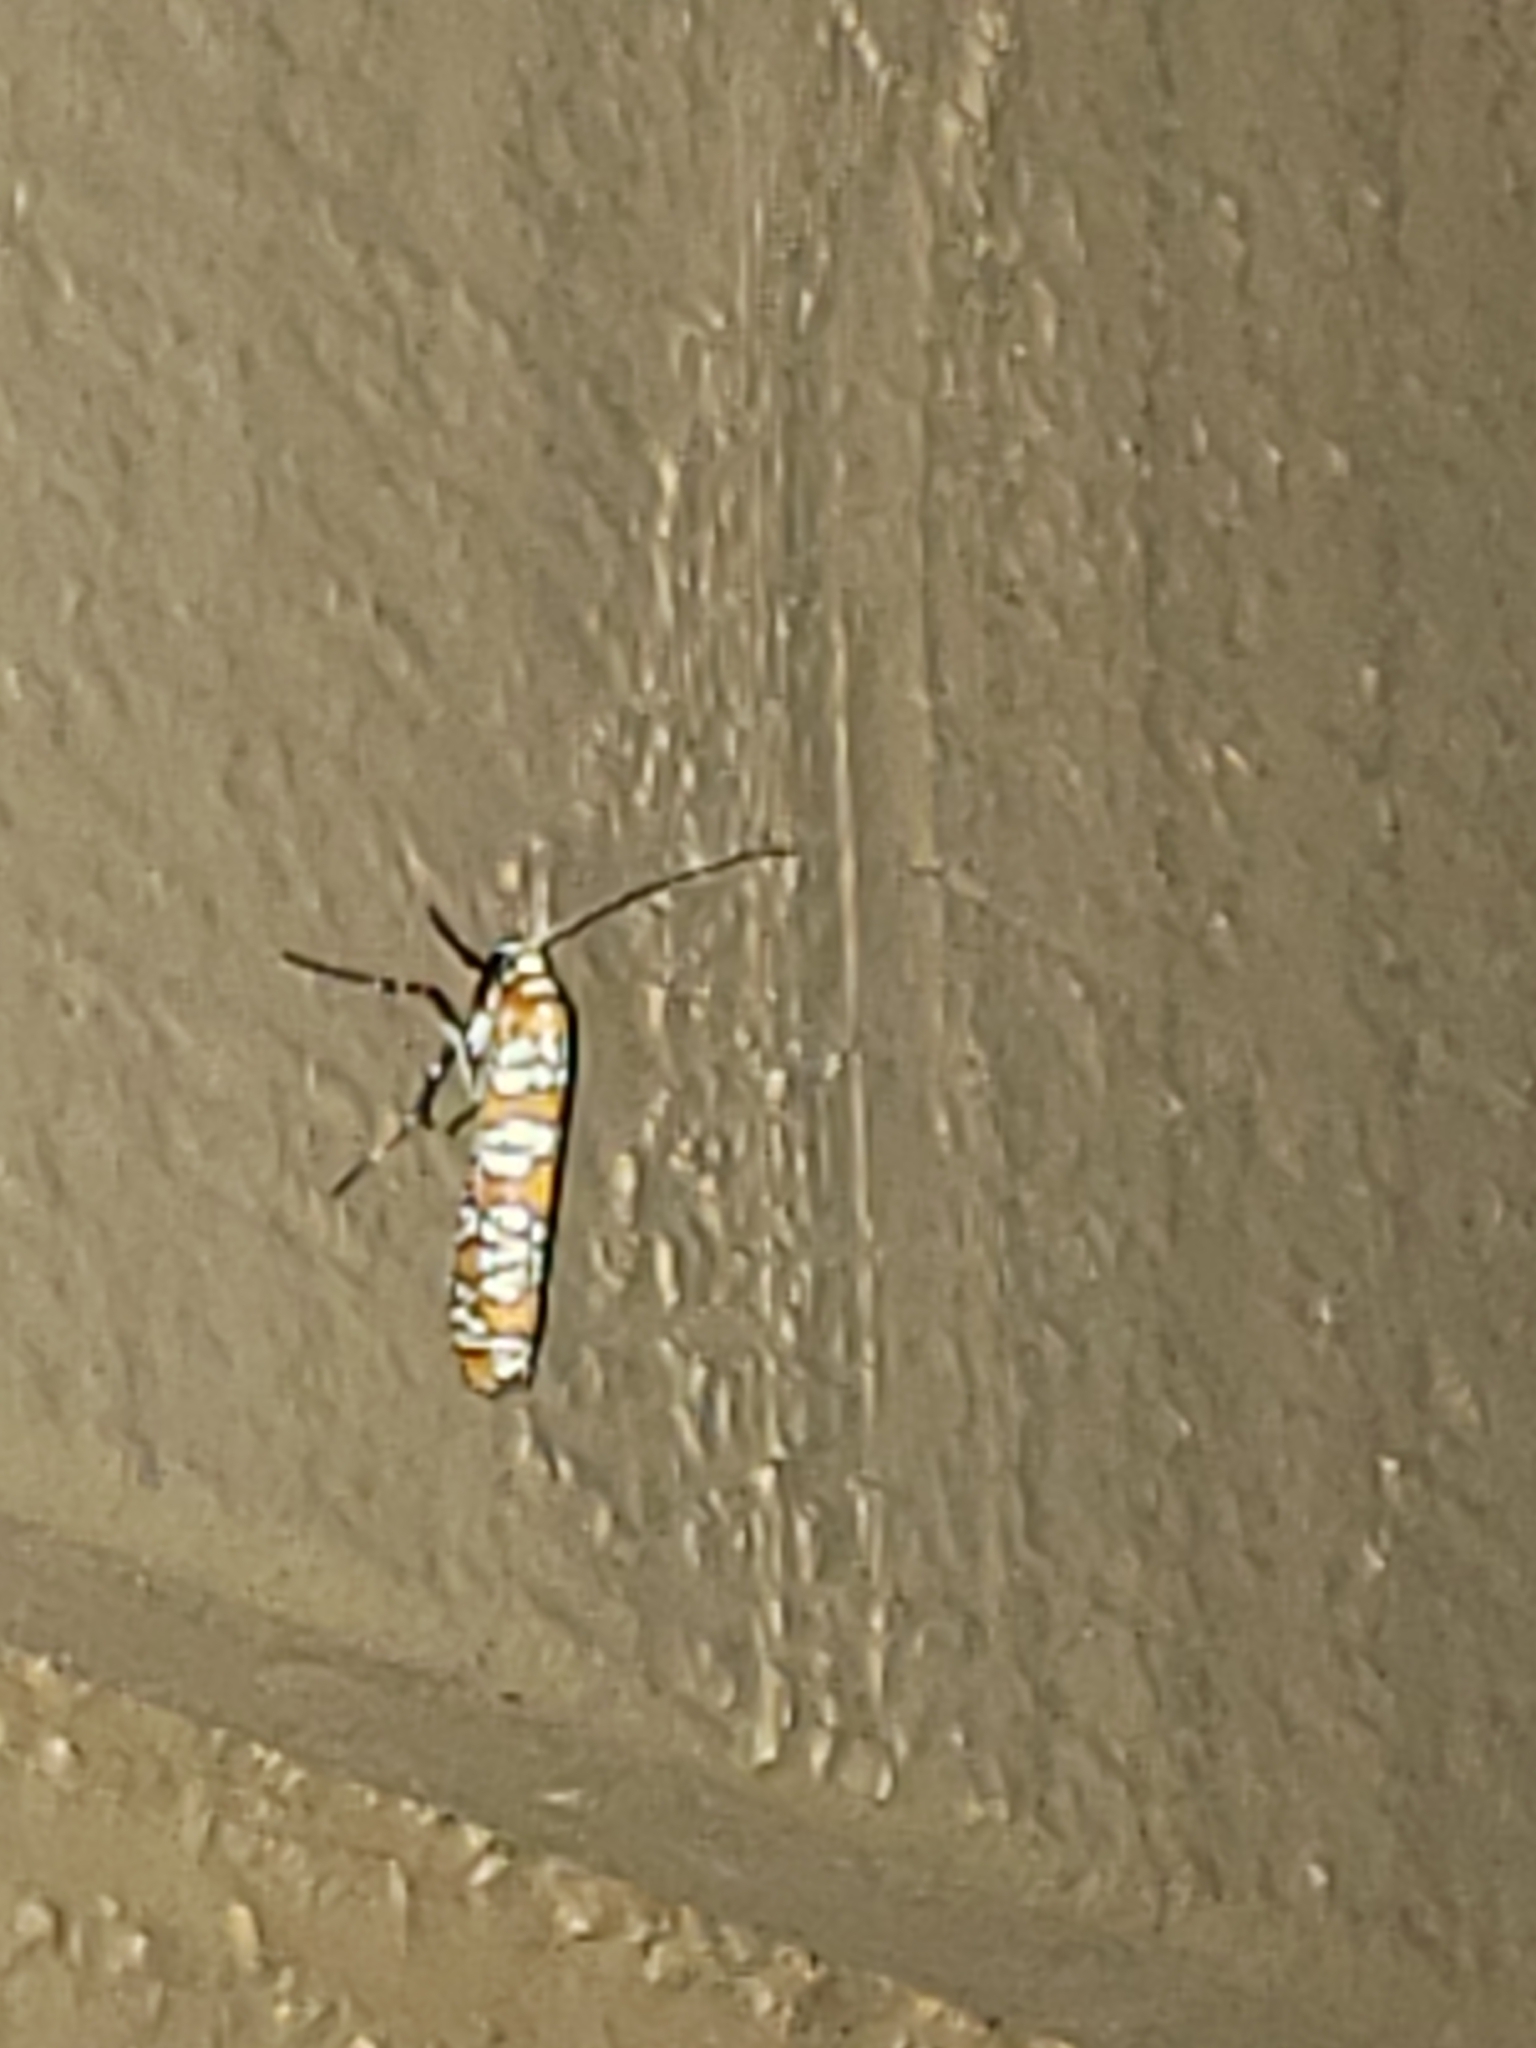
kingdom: Animalia
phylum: Arthropoda
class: Insecta
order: Lepidoptera
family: Attevidae
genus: Atteva
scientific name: Atteva punctella
